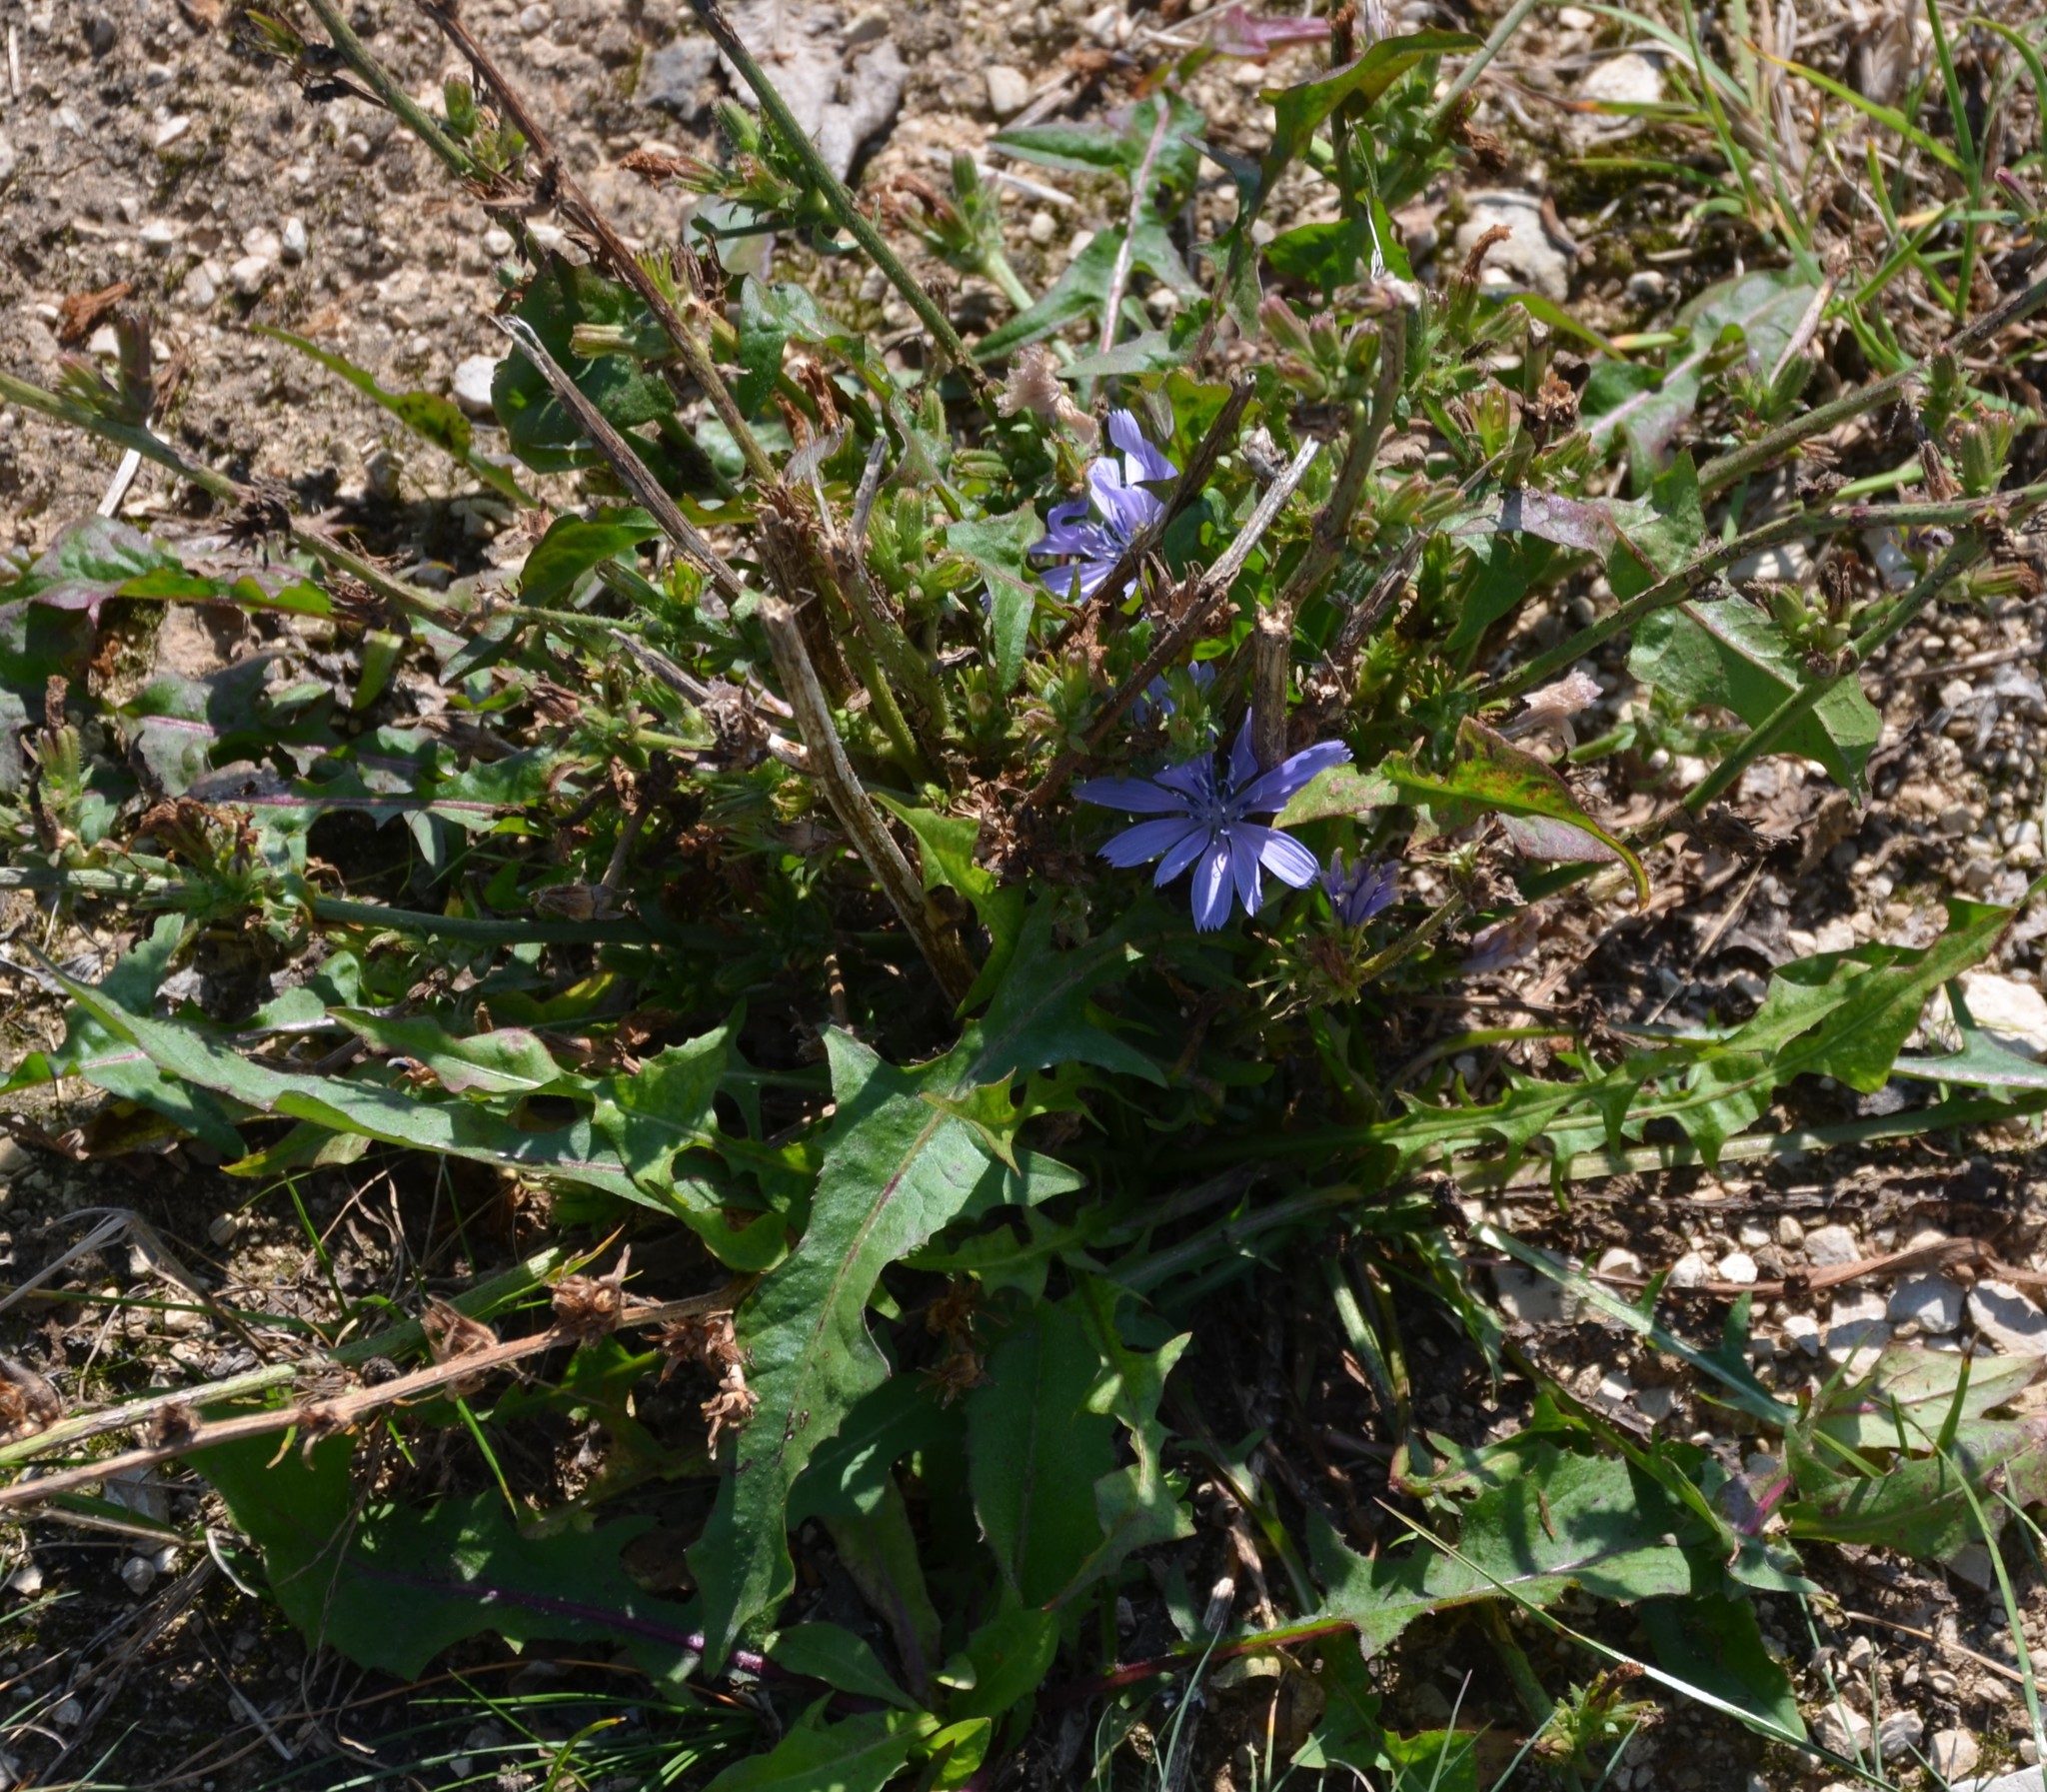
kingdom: Plantae
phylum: Tracheophyta
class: Magnoliopsida
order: Asterales
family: Asteraceae
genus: Cichorium
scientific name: Cichorium intybus
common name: Chicory
